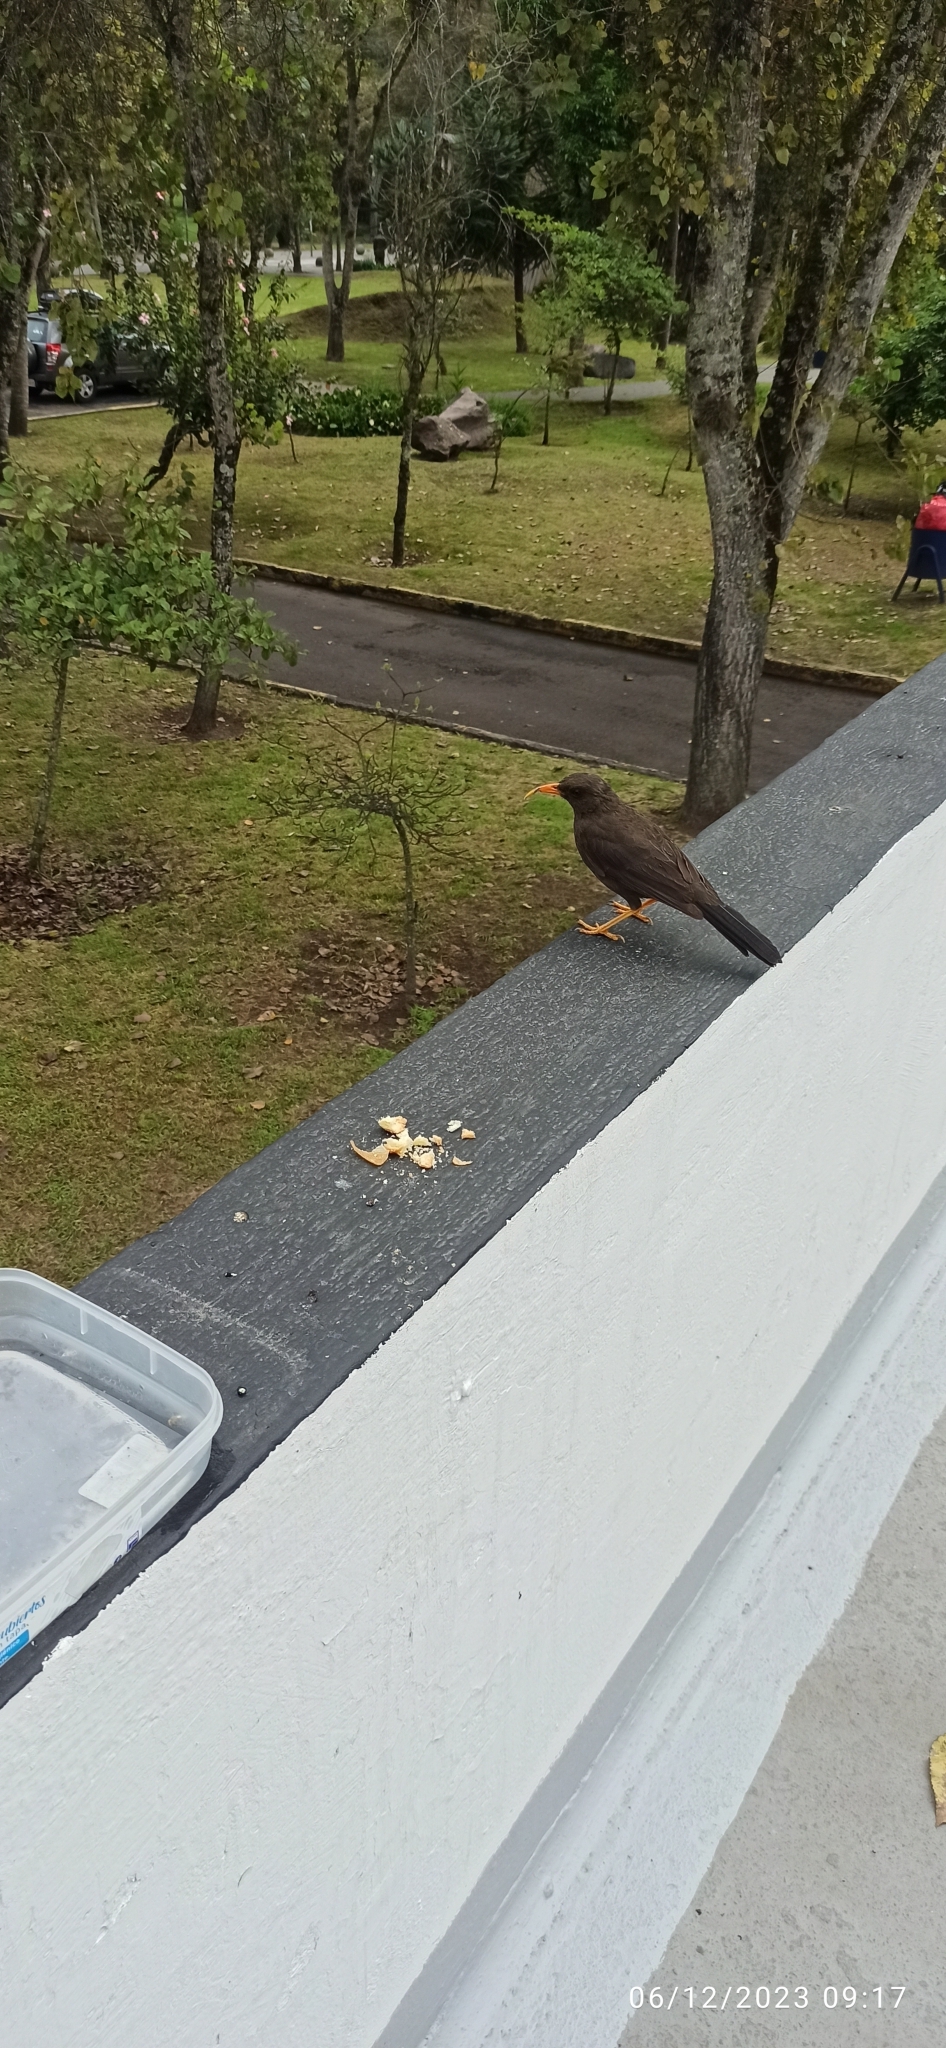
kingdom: Animalia
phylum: Chordata
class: Aves
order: Passeriformes
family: Turdidae
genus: Turdus
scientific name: Turdus fuscater
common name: Great thrush
